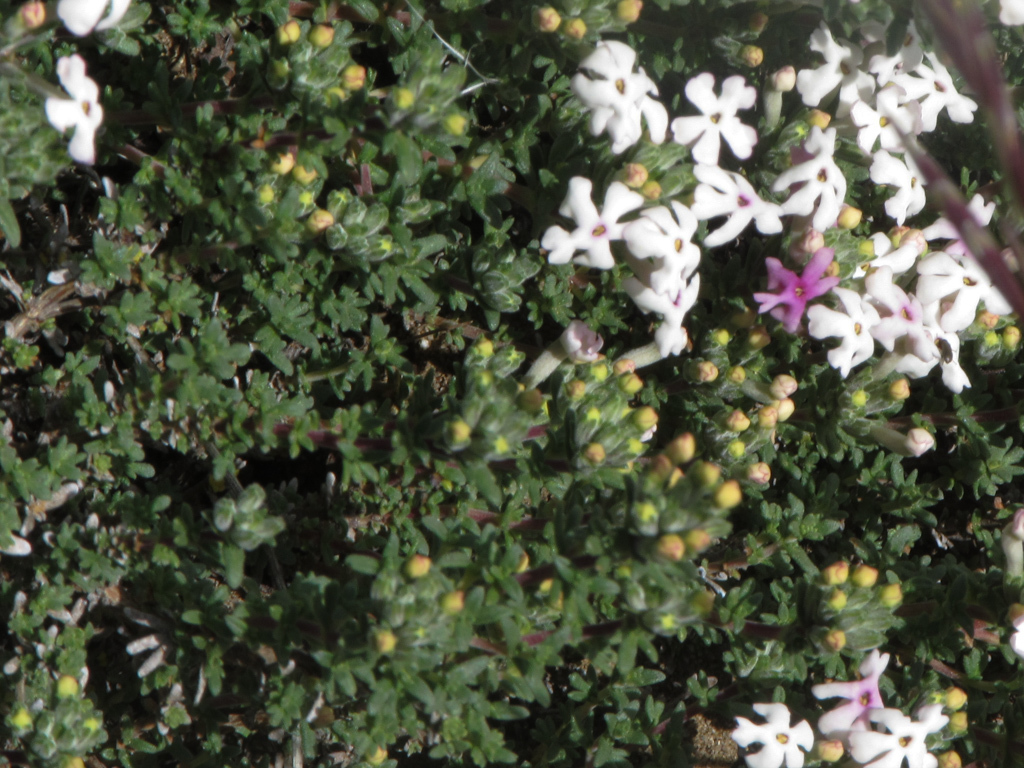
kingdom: Plantae
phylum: Tracheophyta
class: Magnoliopsida
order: Lamiales
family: Verbenaceae
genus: Junellia
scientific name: Junellia tridactylites
